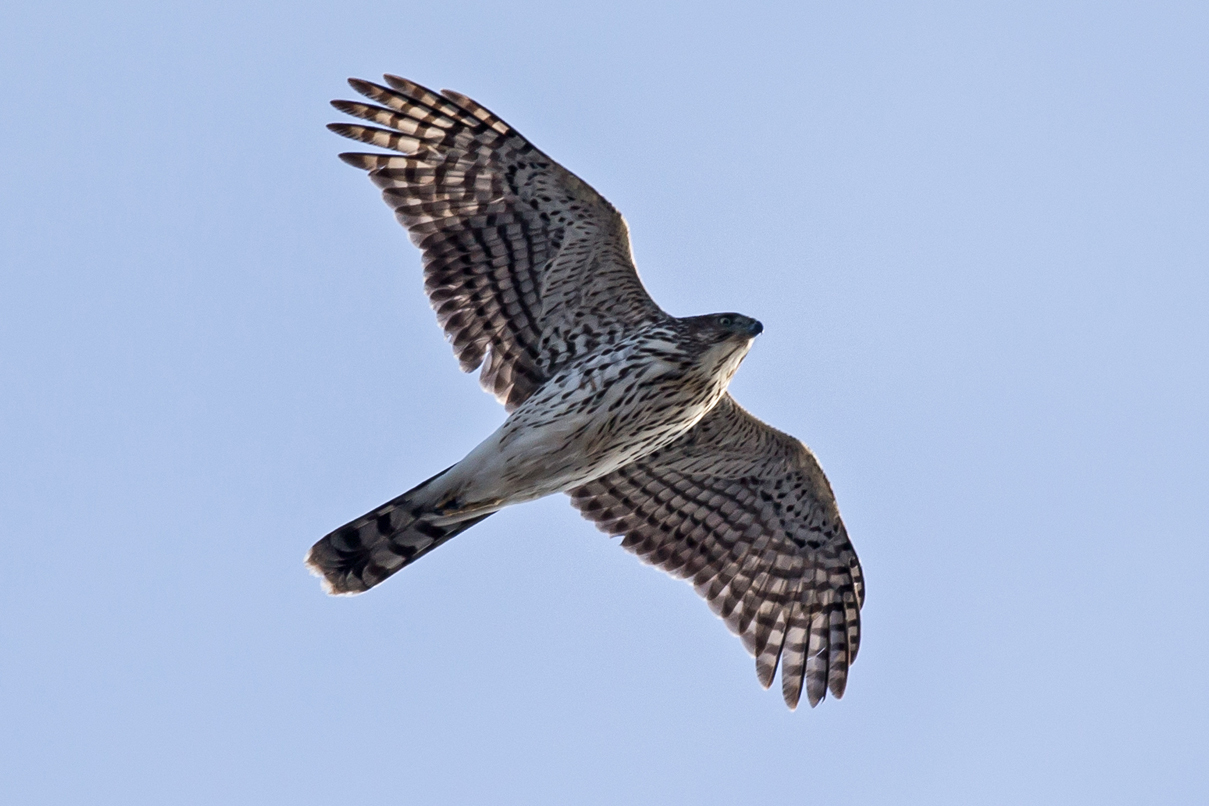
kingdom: Animalia
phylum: Chordata
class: Aves
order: Accipitriformes
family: Accipitridae
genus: Accipiter
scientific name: Accipiter cooperii
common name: Cooper's hawk
